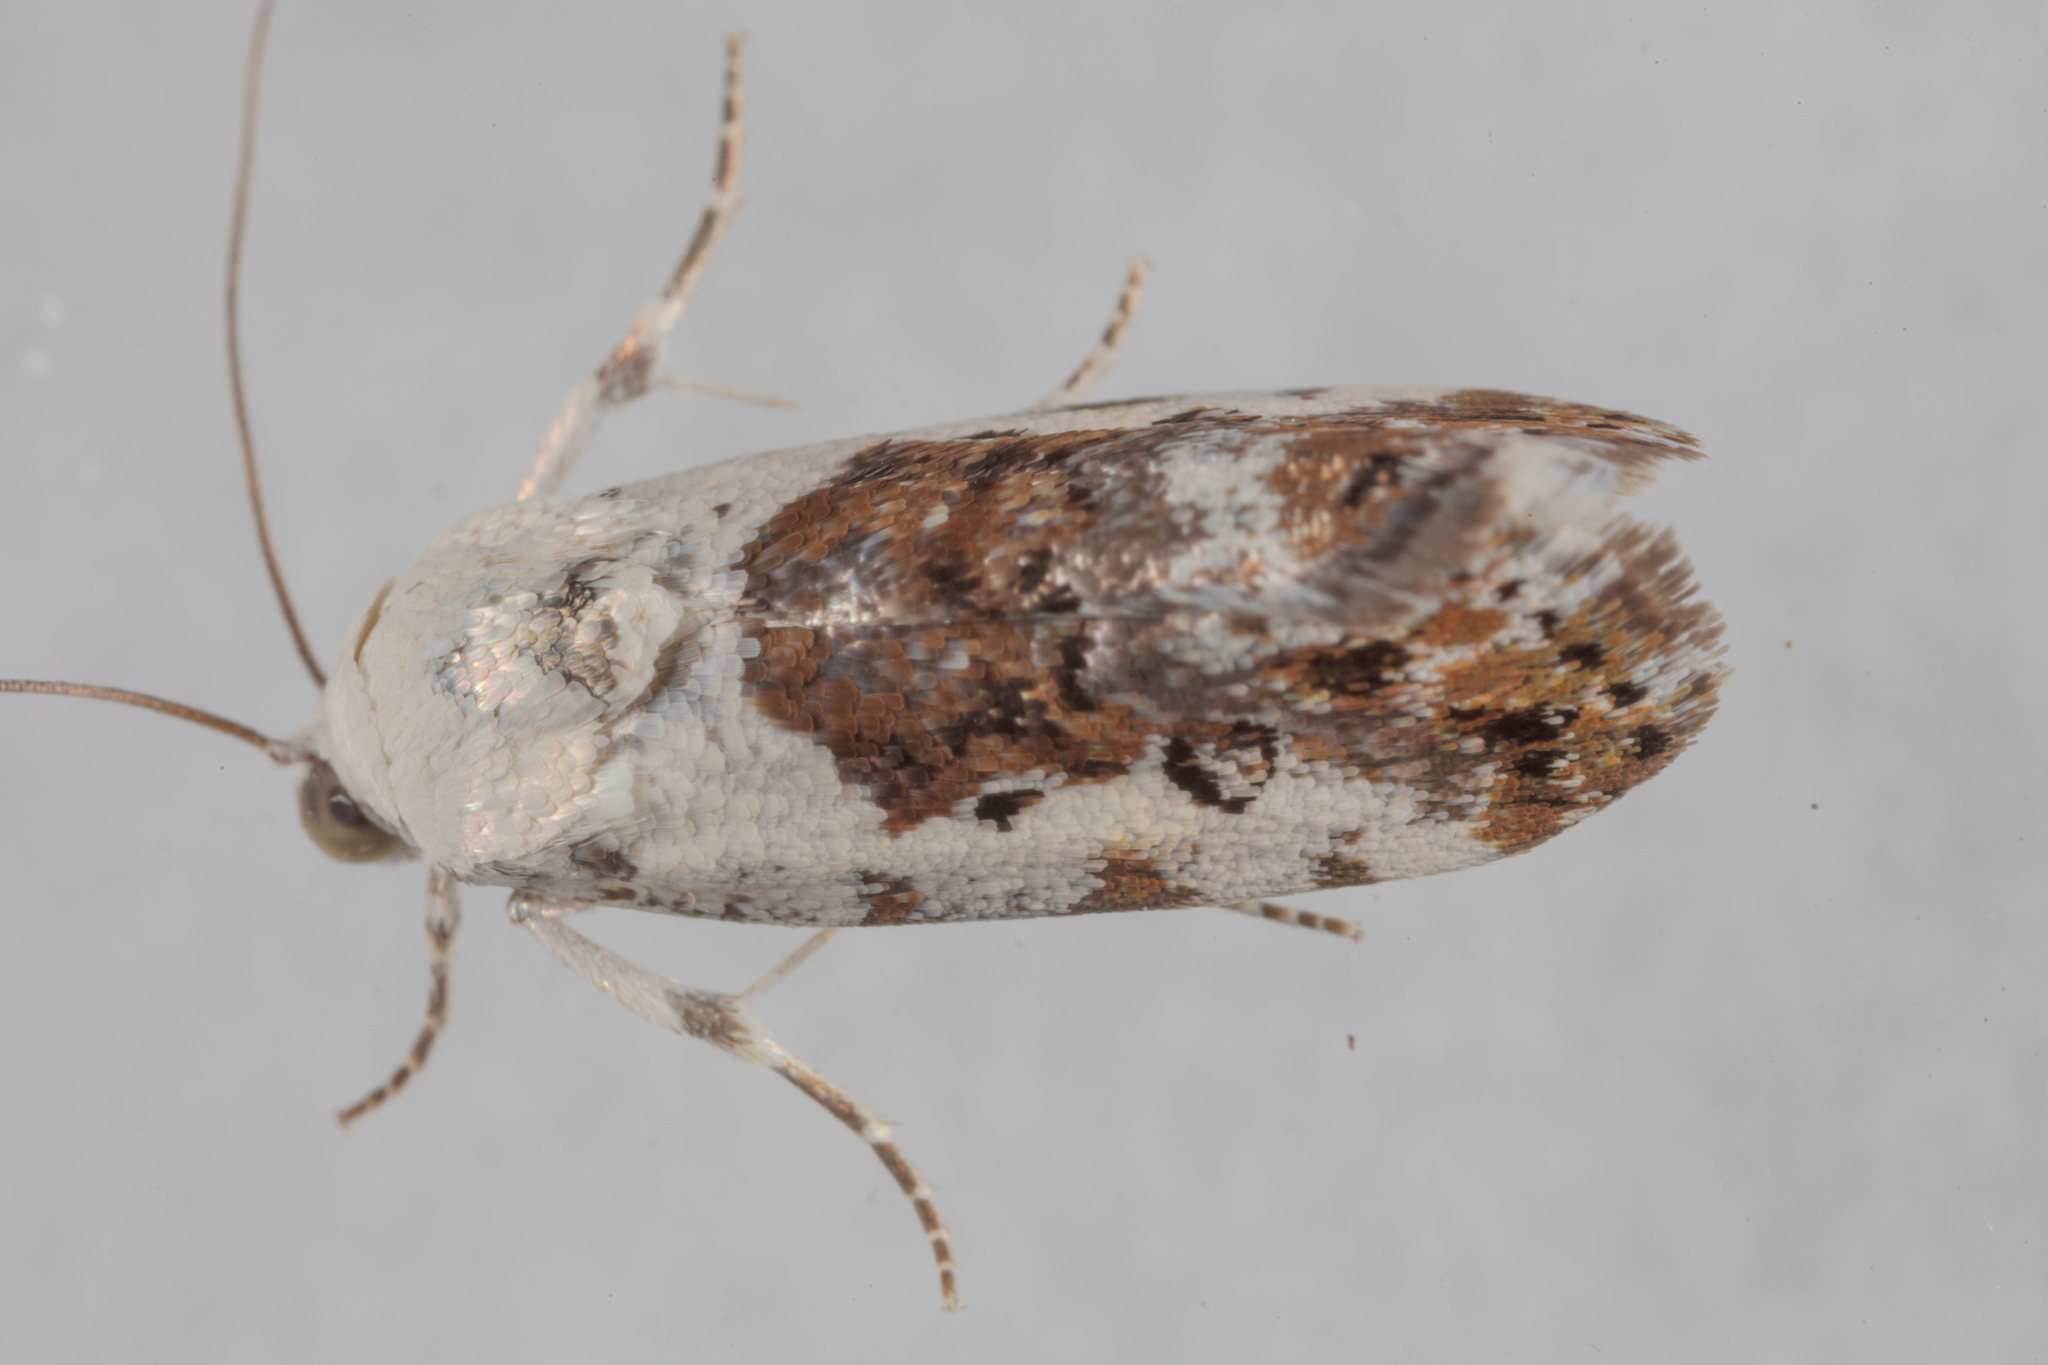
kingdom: Animalia
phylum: Arthropoda
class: Insecta
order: Lepidoptera
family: Noctuidae
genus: Acontia
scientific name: Acontia phecolisca
